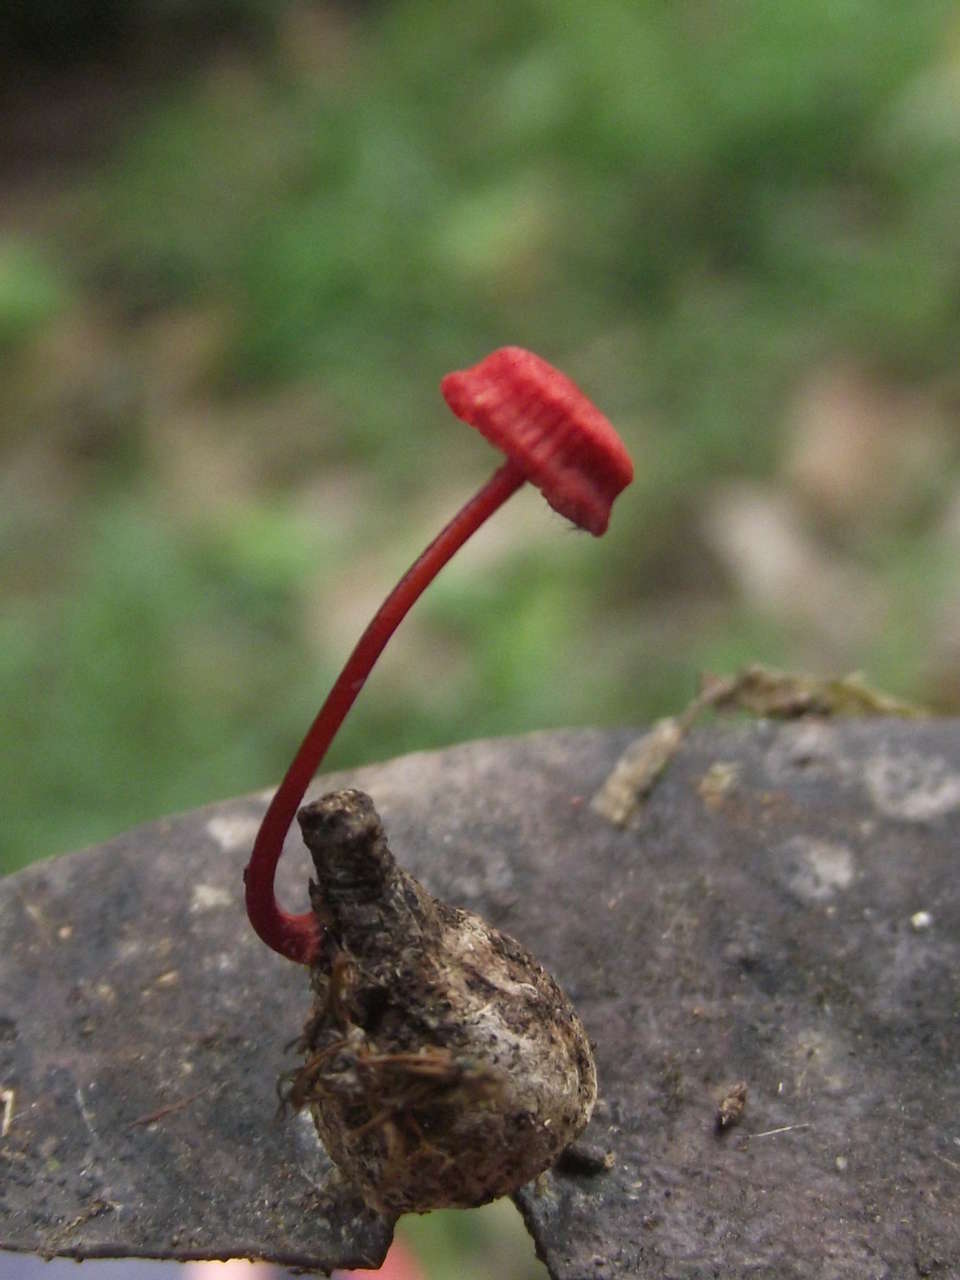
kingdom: Fungi
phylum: Basidiomycota
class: Agaricomycetes
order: Agaricales
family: Mycenaceae
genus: Cruentomycena
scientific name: Cruentomycena viscidocruenta
